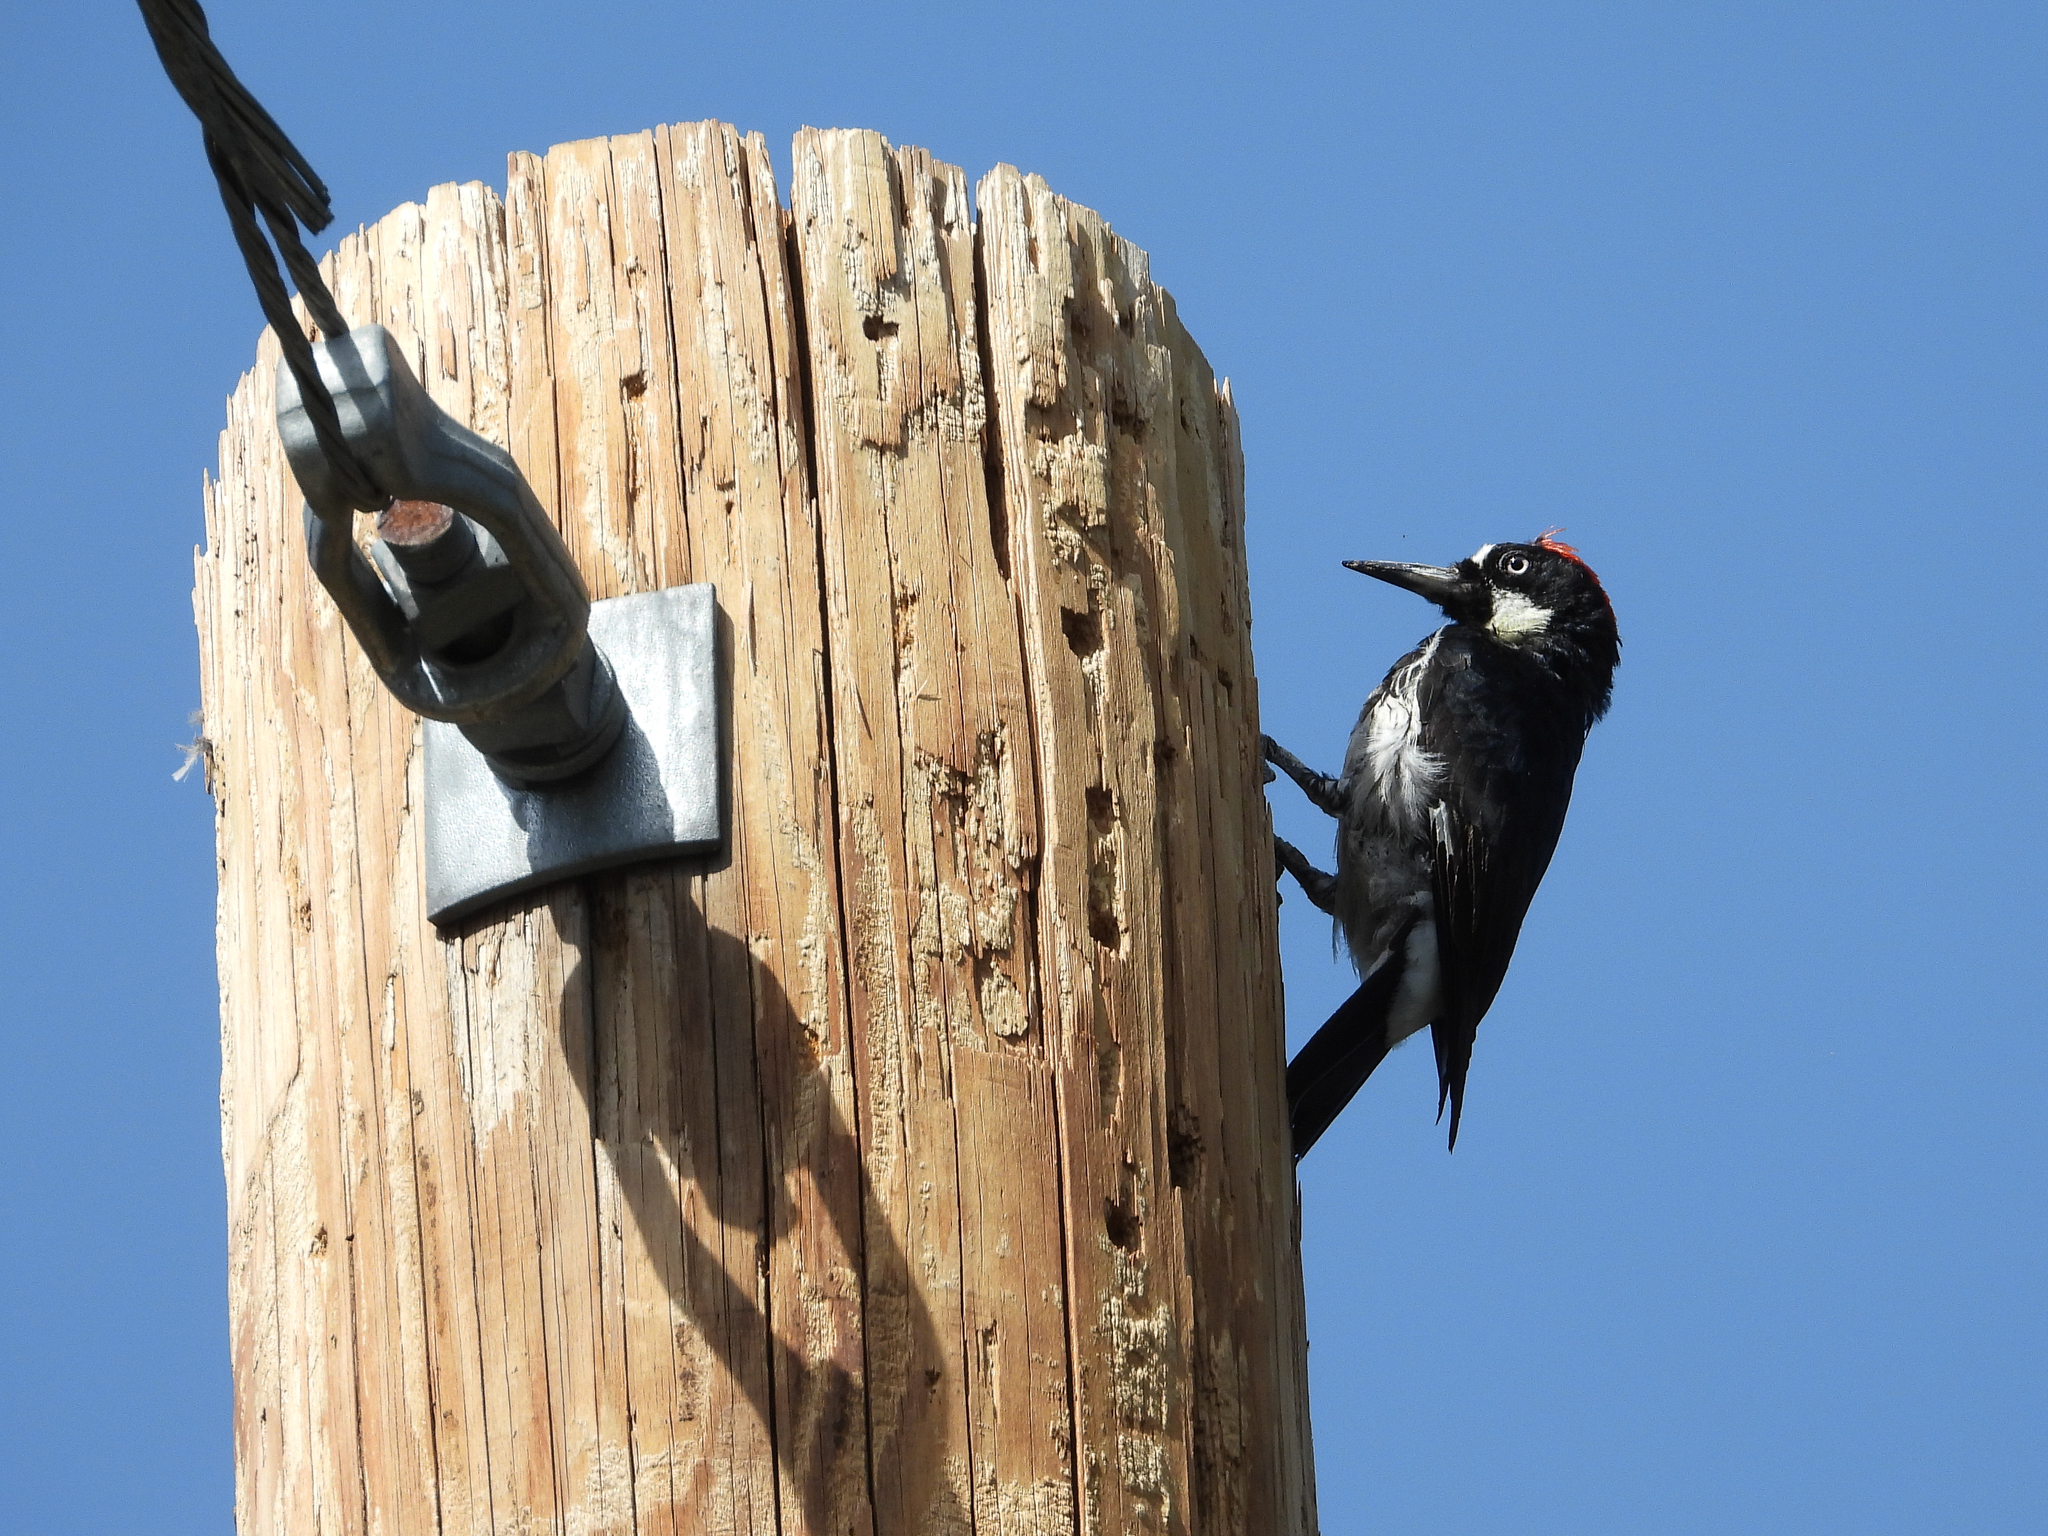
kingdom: Animalia
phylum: Chordata
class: Aves
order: Piciformes
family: Picidae
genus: Melanerpes
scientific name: Melanerpes formicivorus
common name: Acorn woodpecker
